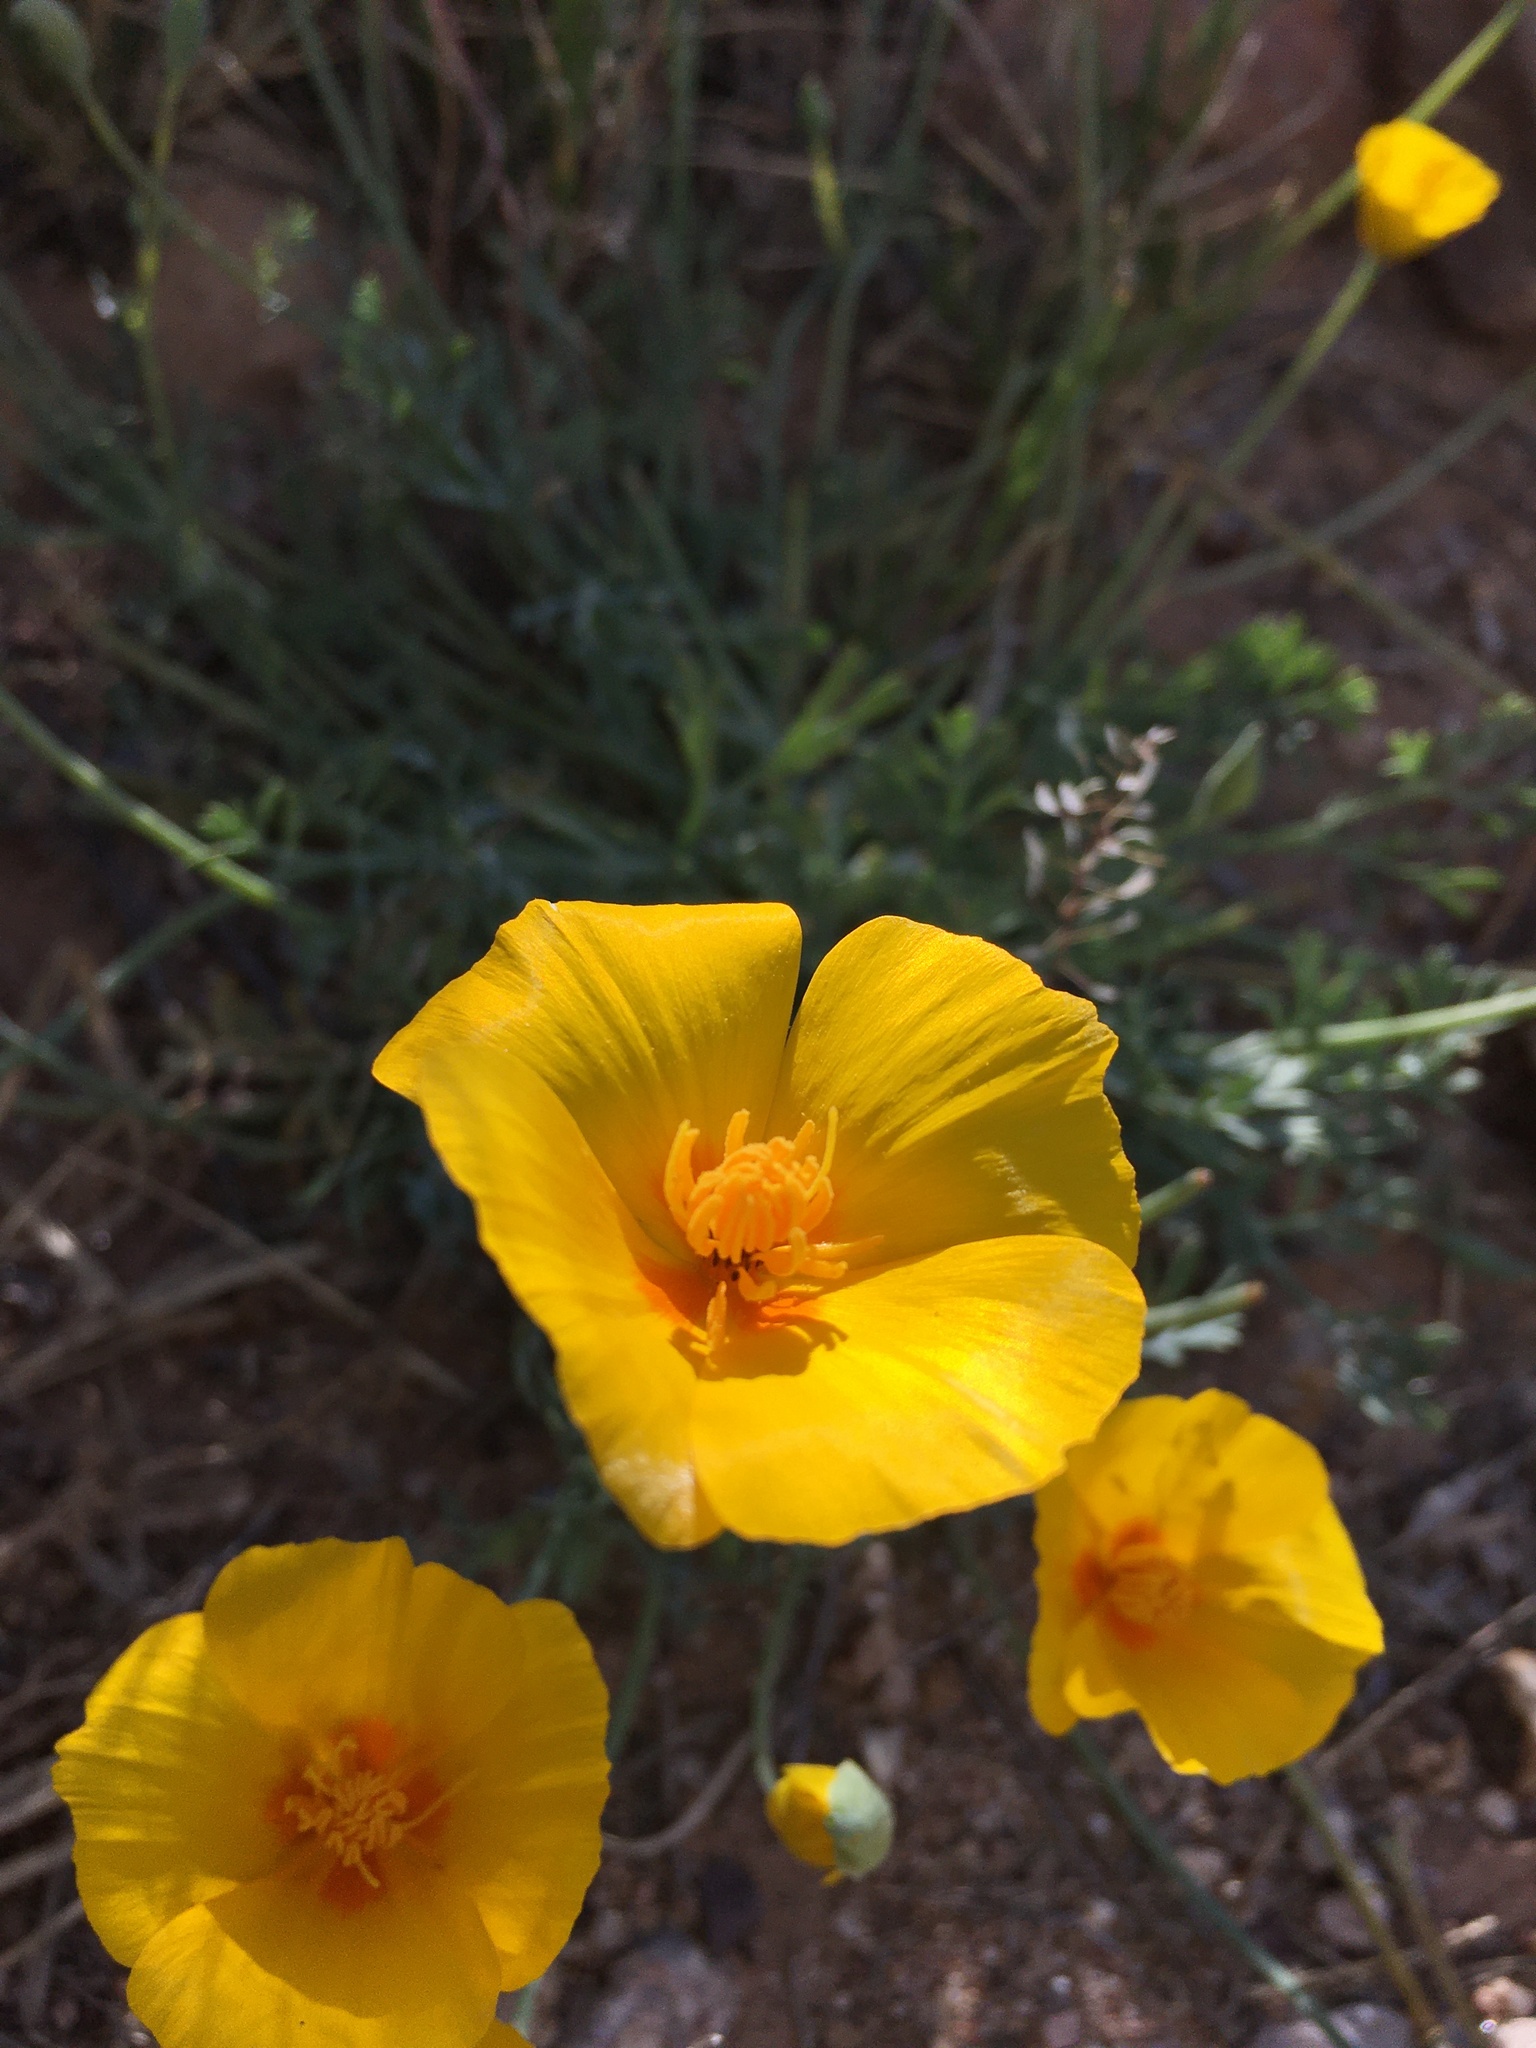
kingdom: Plantae
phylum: Tracheophyta
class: Magnoliopsida
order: Ranunculales
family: Papaveraceae
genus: Eschscholzia
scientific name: Eschscholzia californica
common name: California poppy
